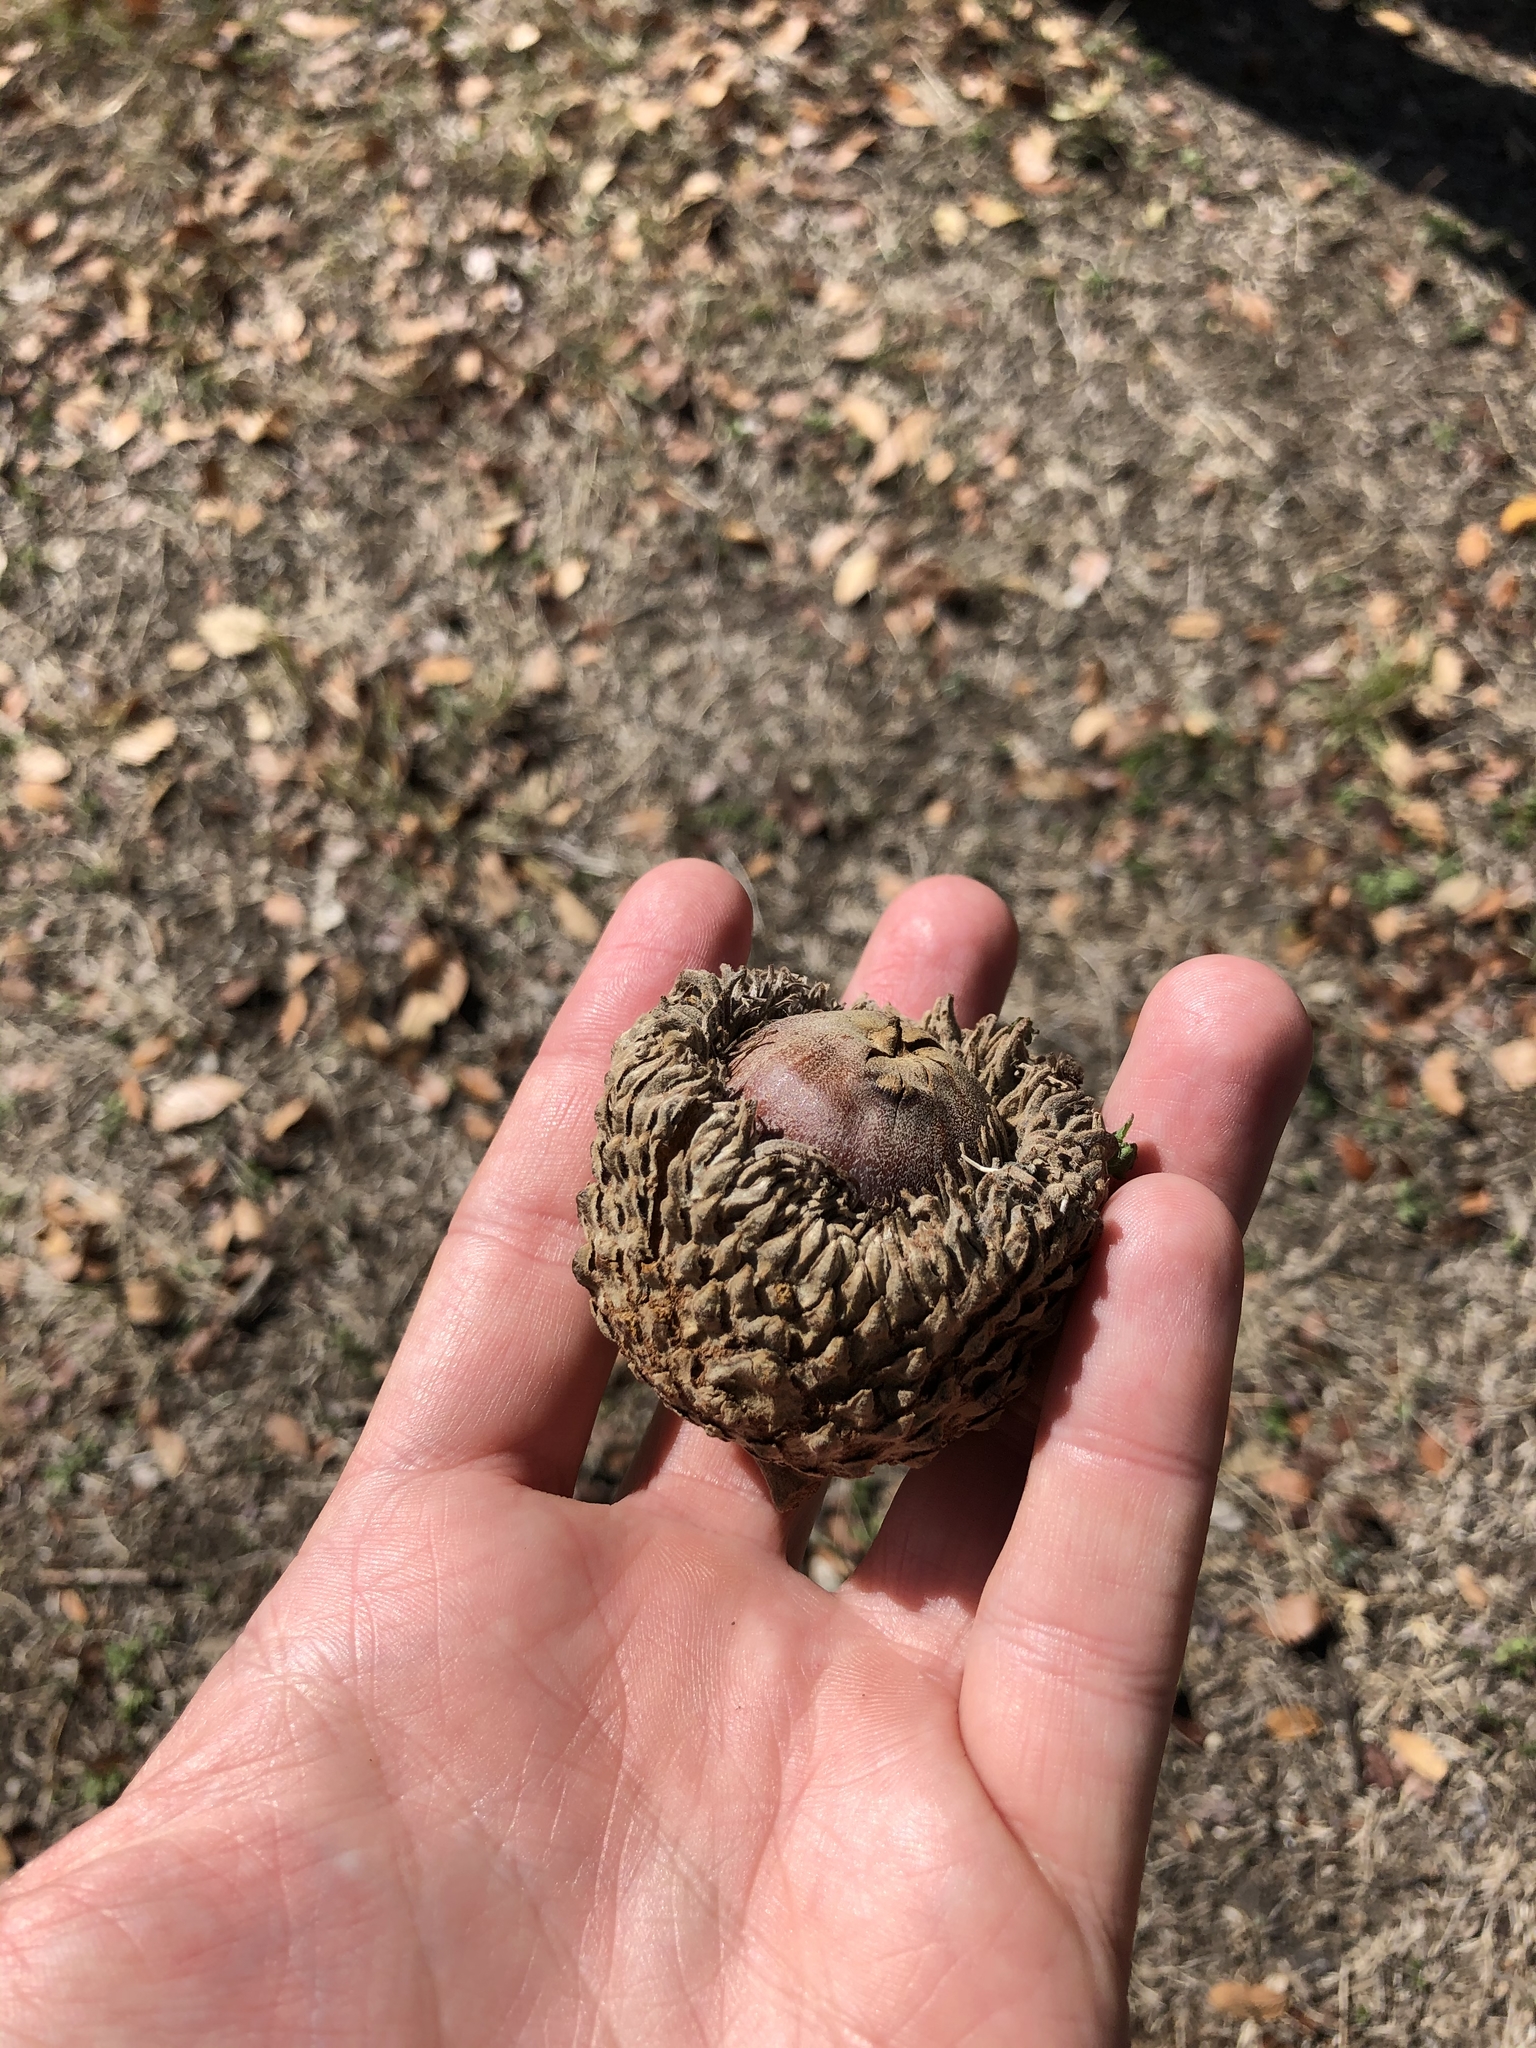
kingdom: Plantae
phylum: Tracheophyta
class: Magnoliopsida
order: Fagales
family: Fagaceae
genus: Quercus
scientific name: Quercus macrocarpa
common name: Bur oak
